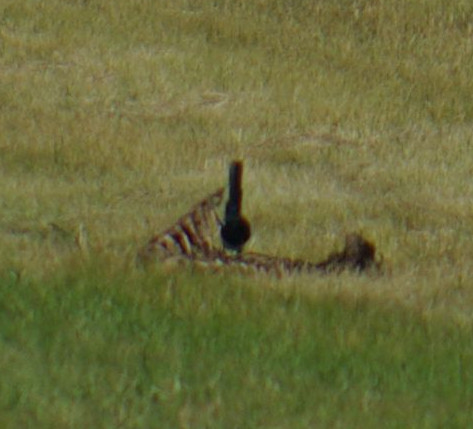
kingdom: Animalia
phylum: Chordata
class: Aves
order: Passeriformes
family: Corvidae
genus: Pica
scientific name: Pica hudsonia
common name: Black-billed magpie
